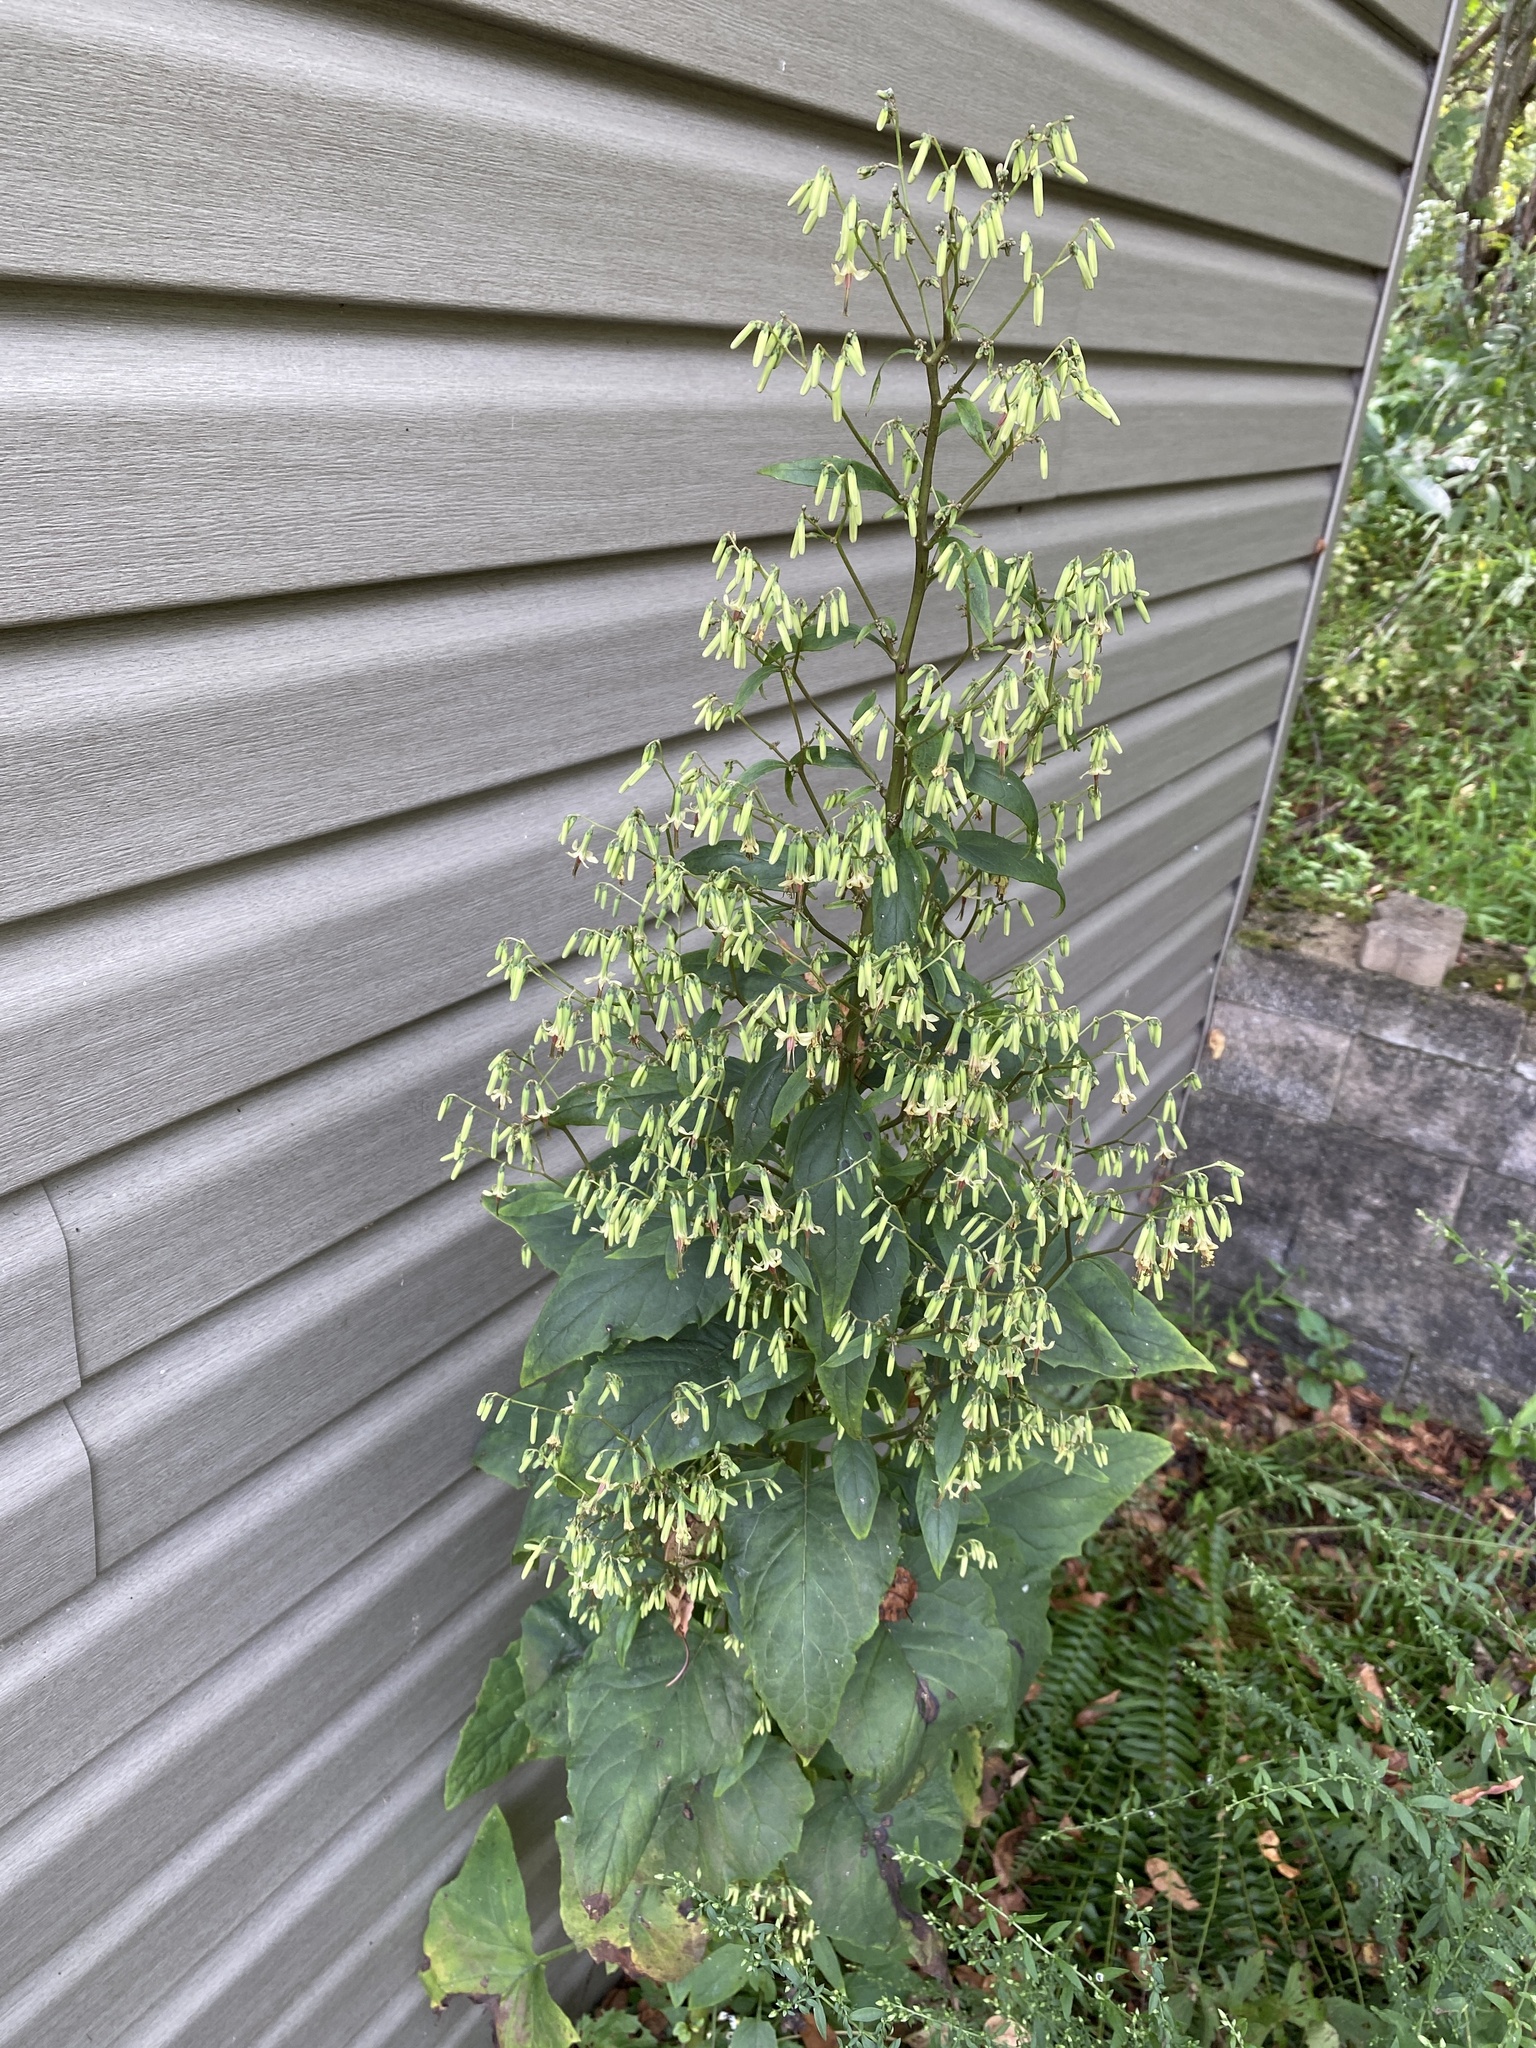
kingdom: Plantae
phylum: Tracheophyta
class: Magnoliopsida
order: Asterales
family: Asteraceae
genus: Nabalus
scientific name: Nabalus altissima
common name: Tall rattlesnakeroot
